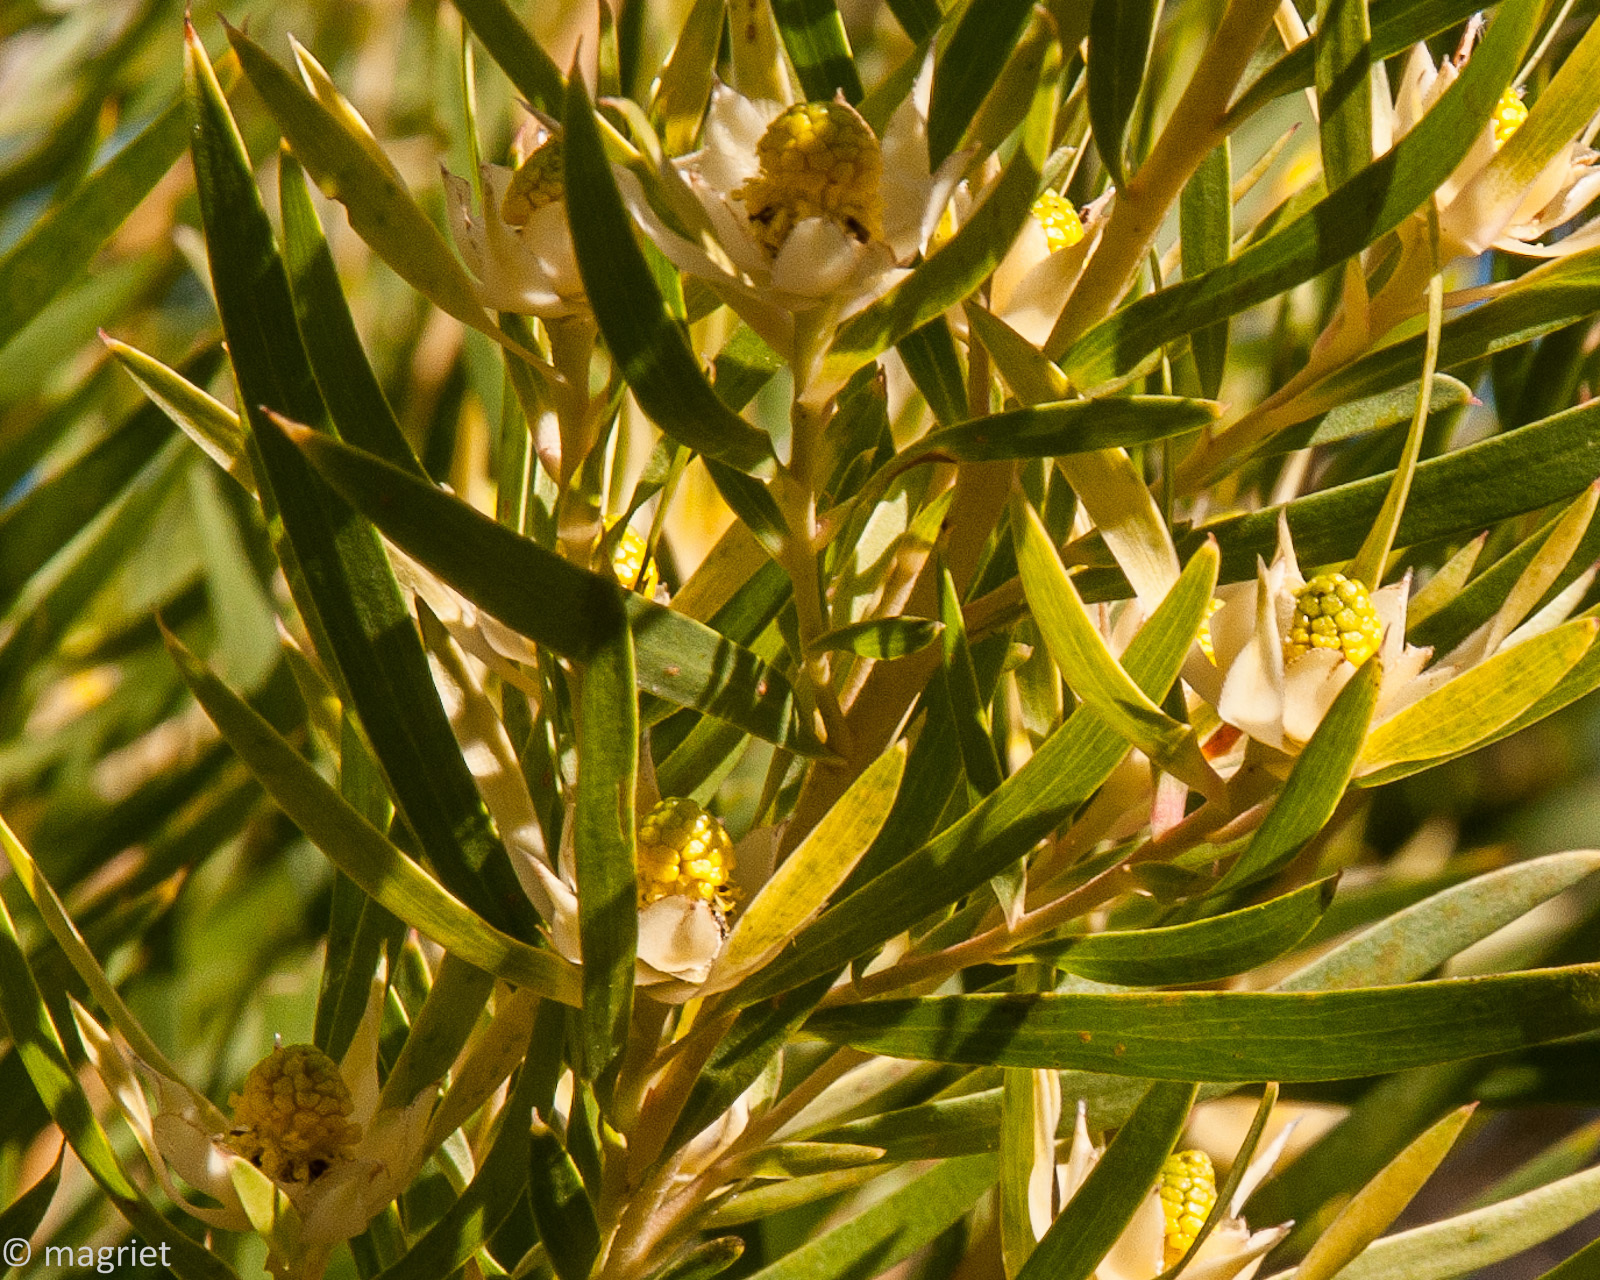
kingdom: Plantae
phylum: Tracheophyta
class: Magnoliopsida
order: Proteales
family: Proteaceae
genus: Leucadendron
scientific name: Leucadendron salicifolium
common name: Common stream conebush
